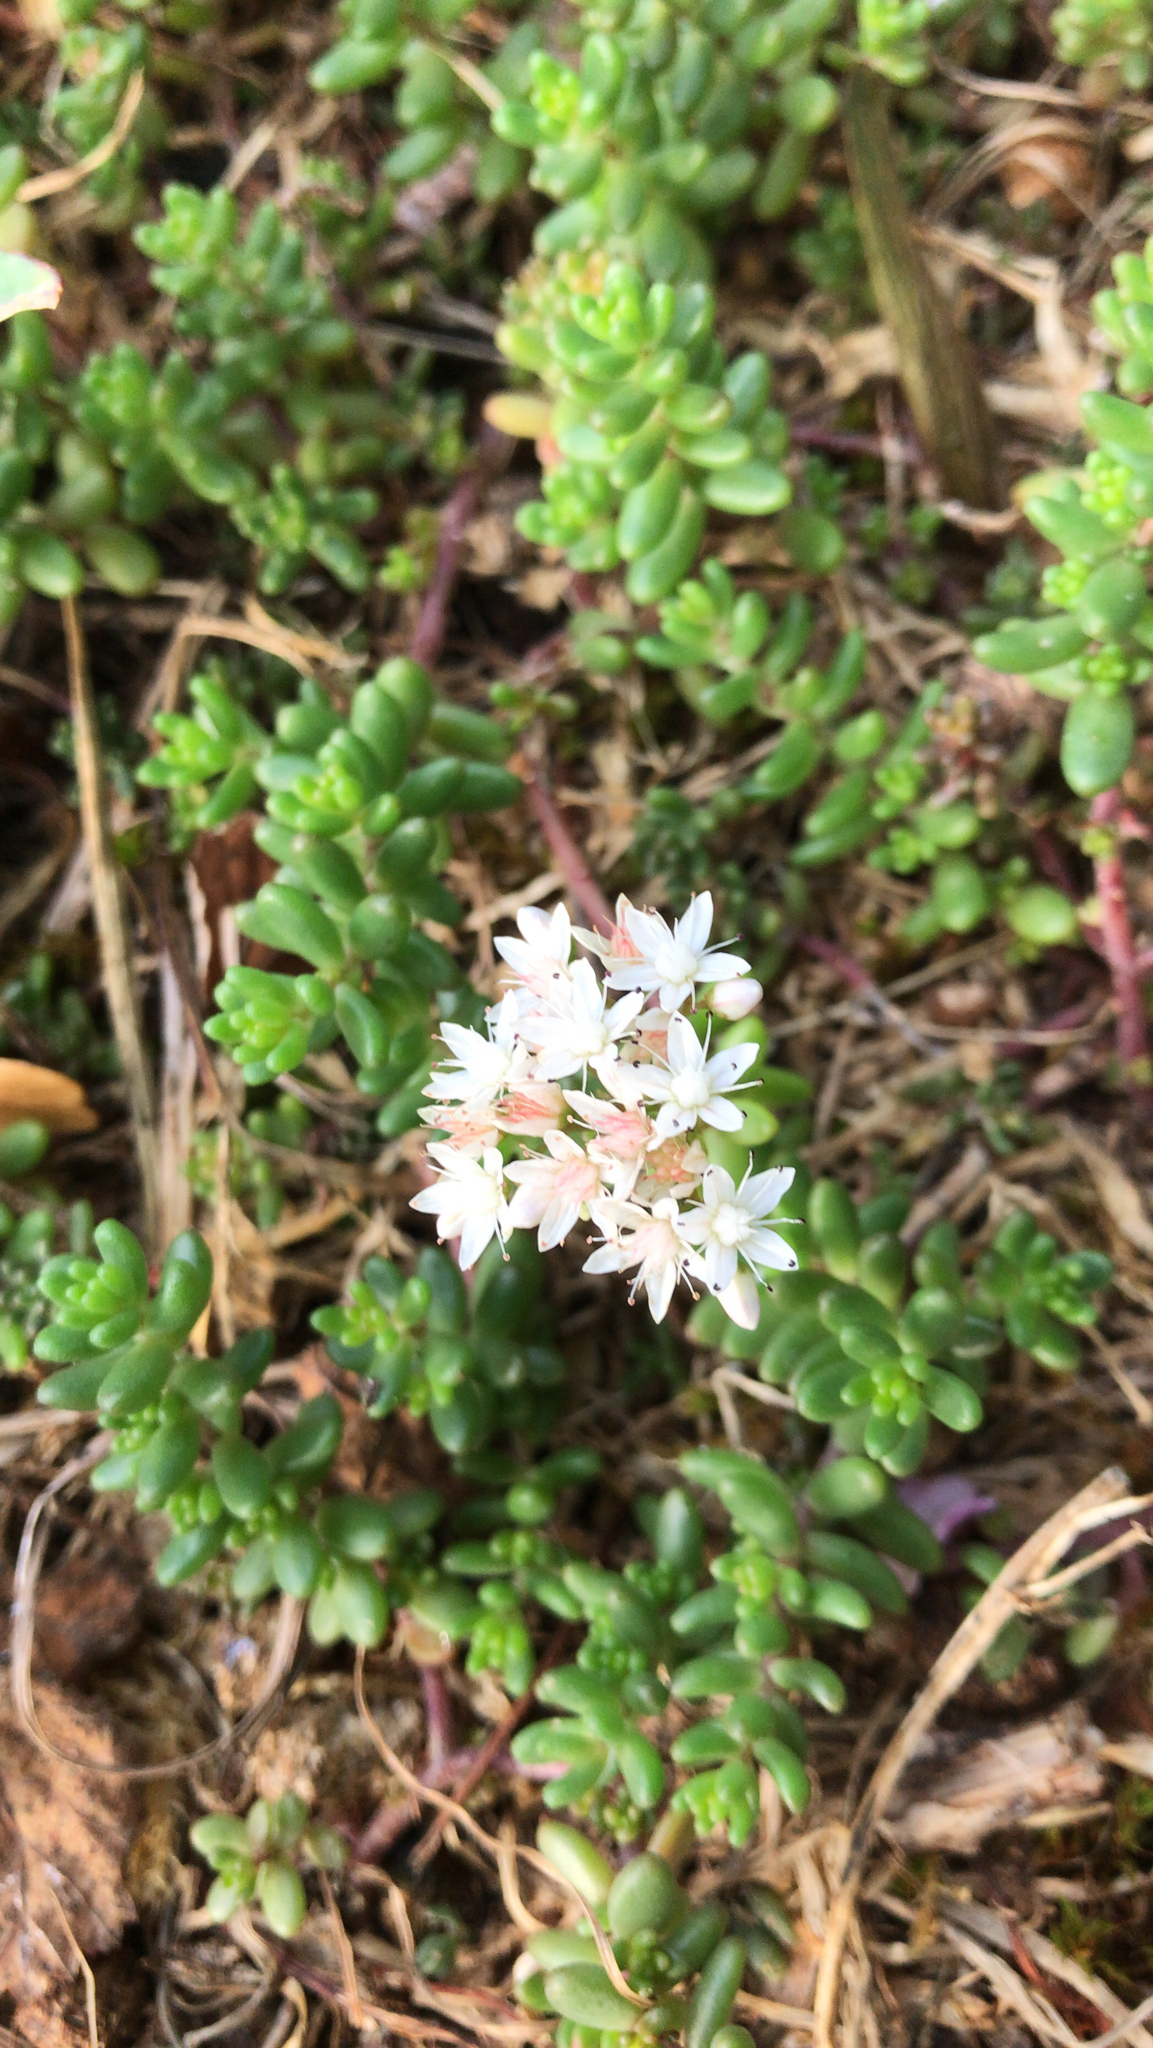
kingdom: Plantae
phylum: Tracheophyta
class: Magnoliopsida
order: Saxifragales
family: Crassulaceae
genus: Sedum
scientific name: Sedum album
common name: White stonecrop
